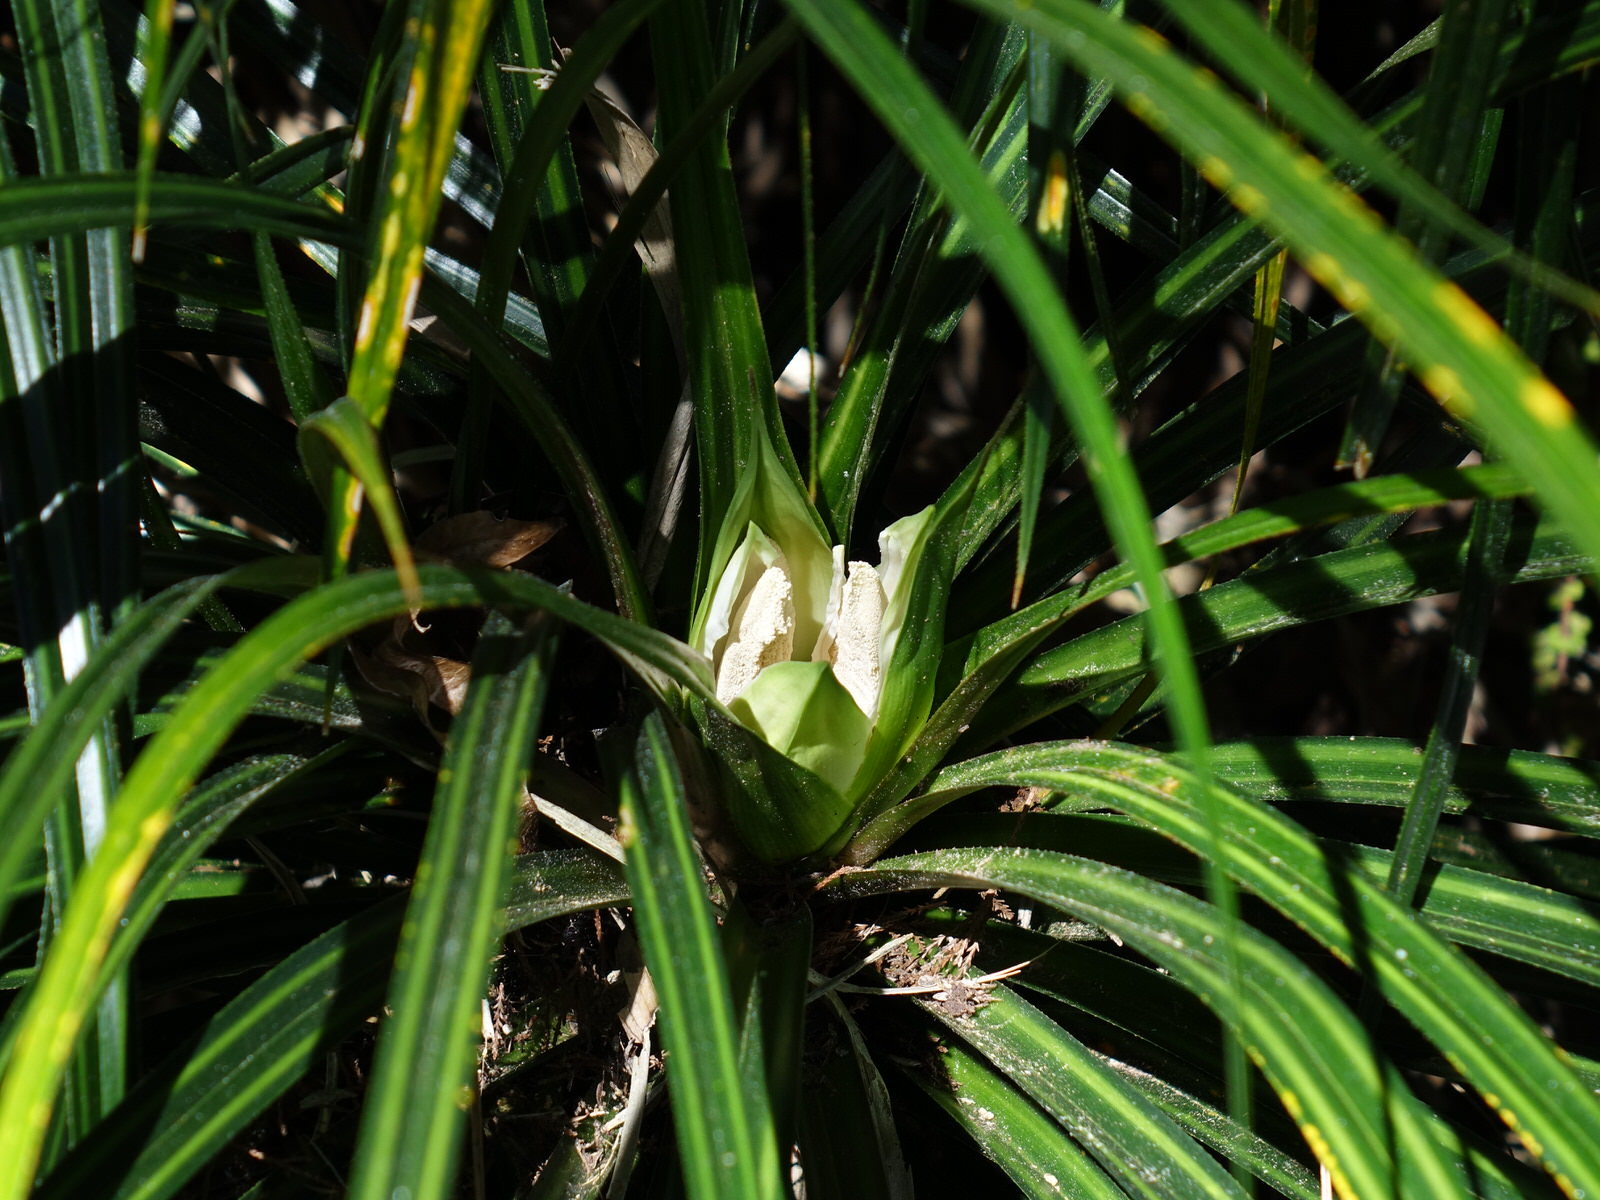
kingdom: Plantae
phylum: Tracheophyta
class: Liliopsida
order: Pandanales
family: Pandanaceae
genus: Freycinetia
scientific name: Freycinetia banksii
